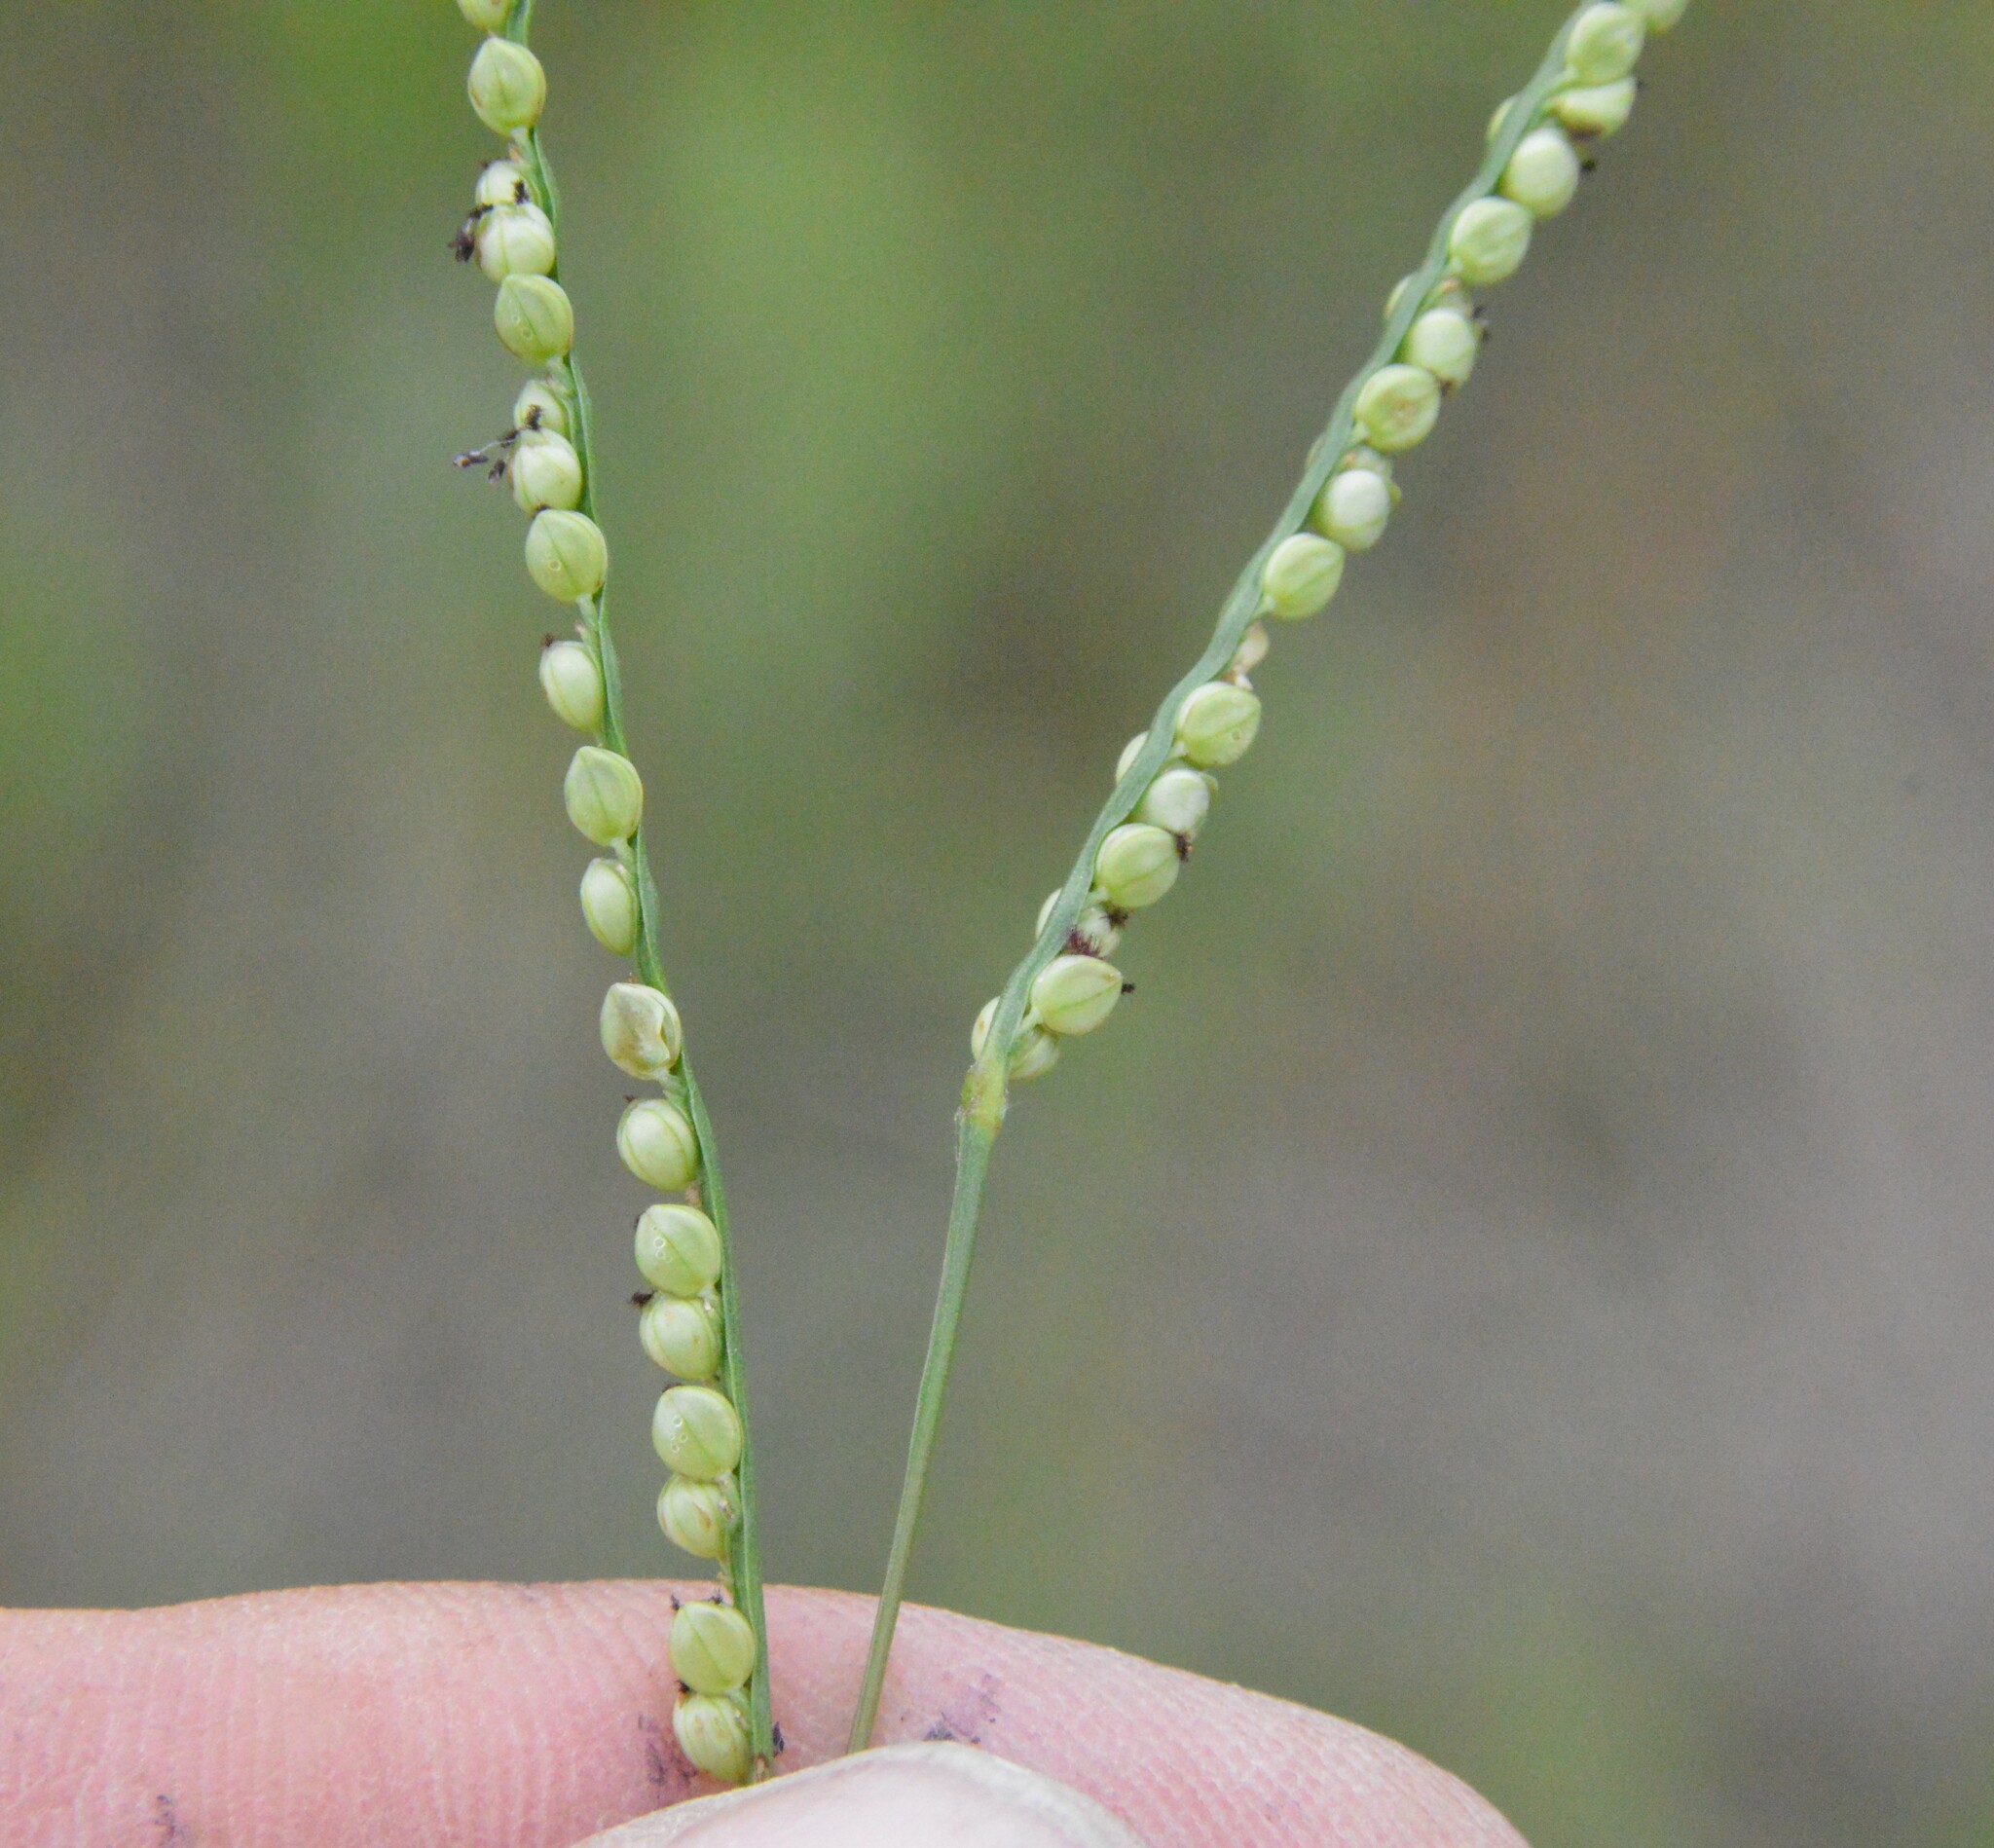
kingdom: Plantae
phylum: Tracheophyta
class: Liliopsida
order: Poales
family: Poaceae
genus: Paspalum
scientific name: Paspalum setaceum
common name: Slender paspalum
